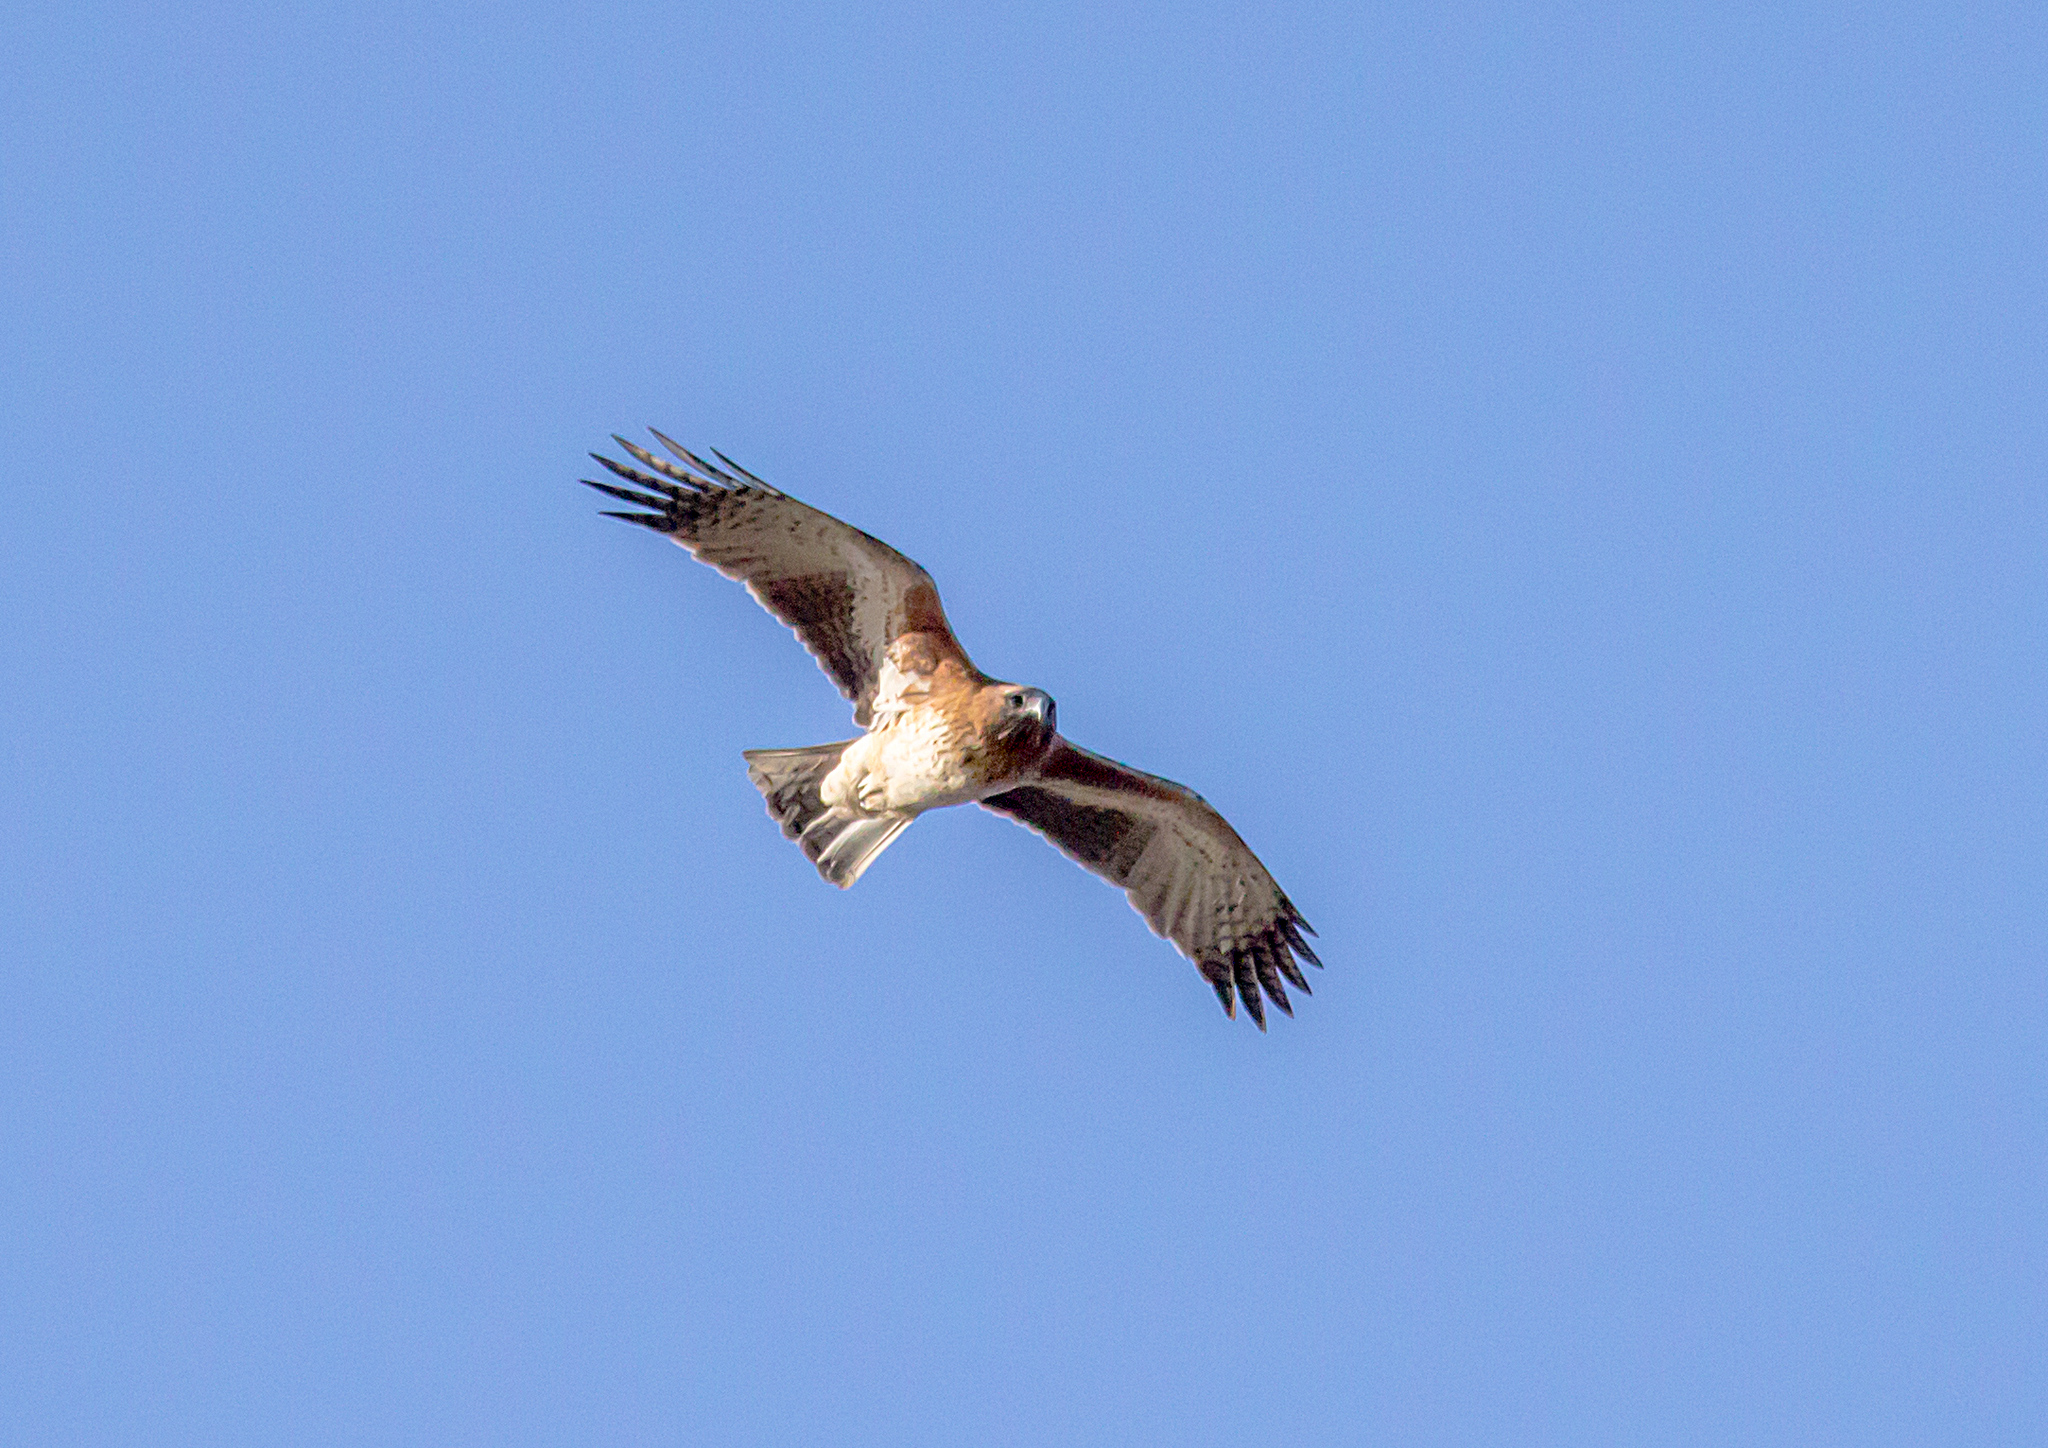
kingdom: Animalia
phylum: Chordata
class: Aves
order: Accipitriformes
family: Accipitridae
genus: Hieraaetus
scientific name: Hieraaetus morphnoides
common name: Little eagle
